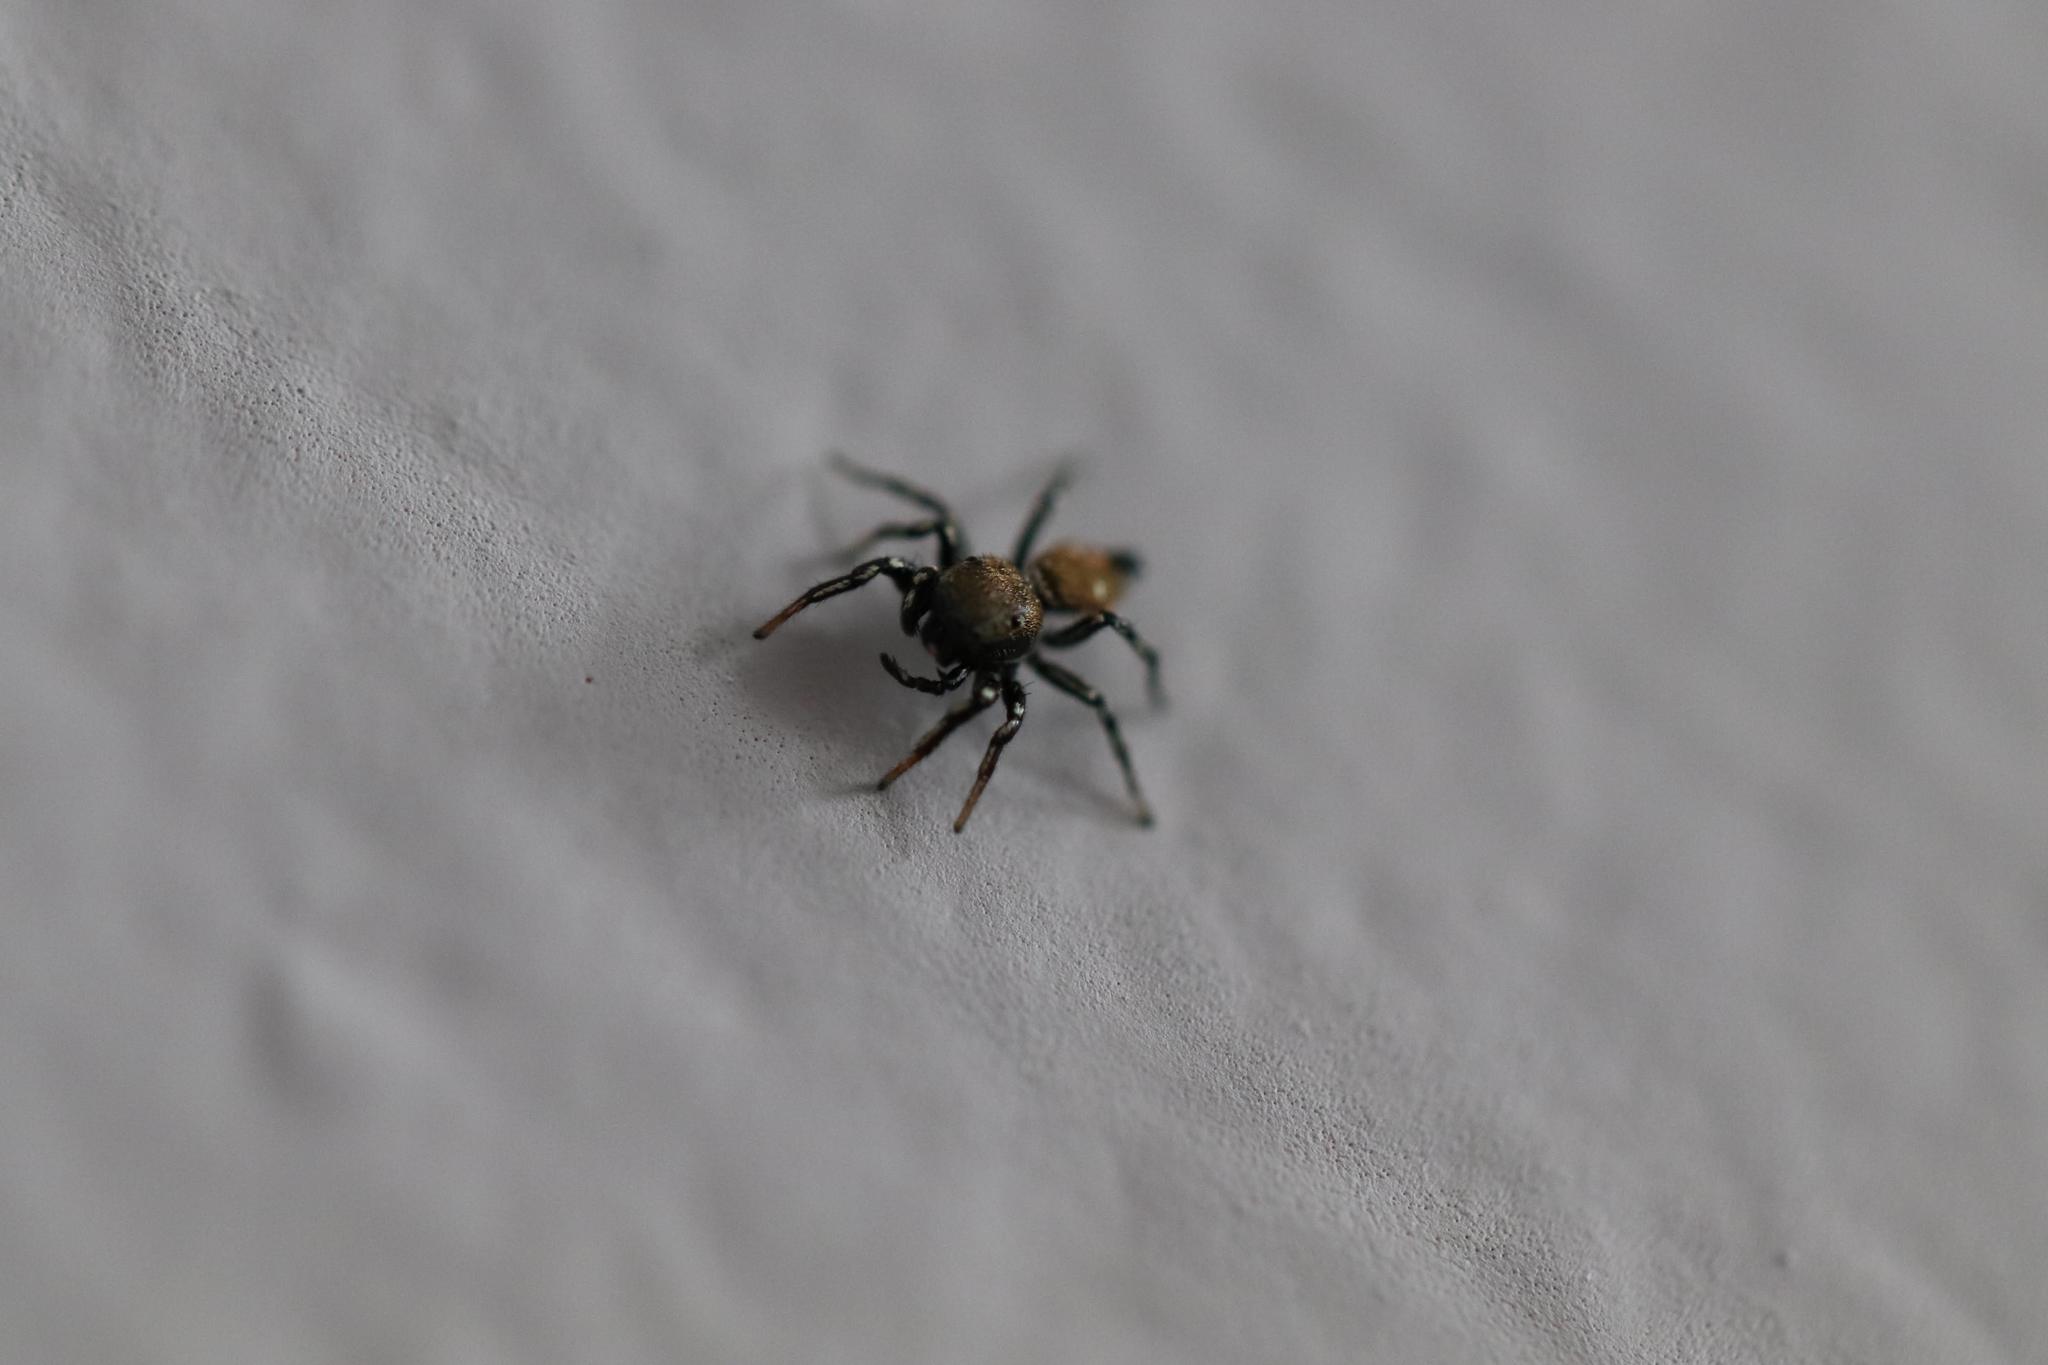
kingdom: Animalia
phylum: Arthropoda
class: Arachnida
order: Araneae
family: Salticidae
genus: Heliophanus
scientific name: Heliophanus kochii
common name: Sun jumping spider
